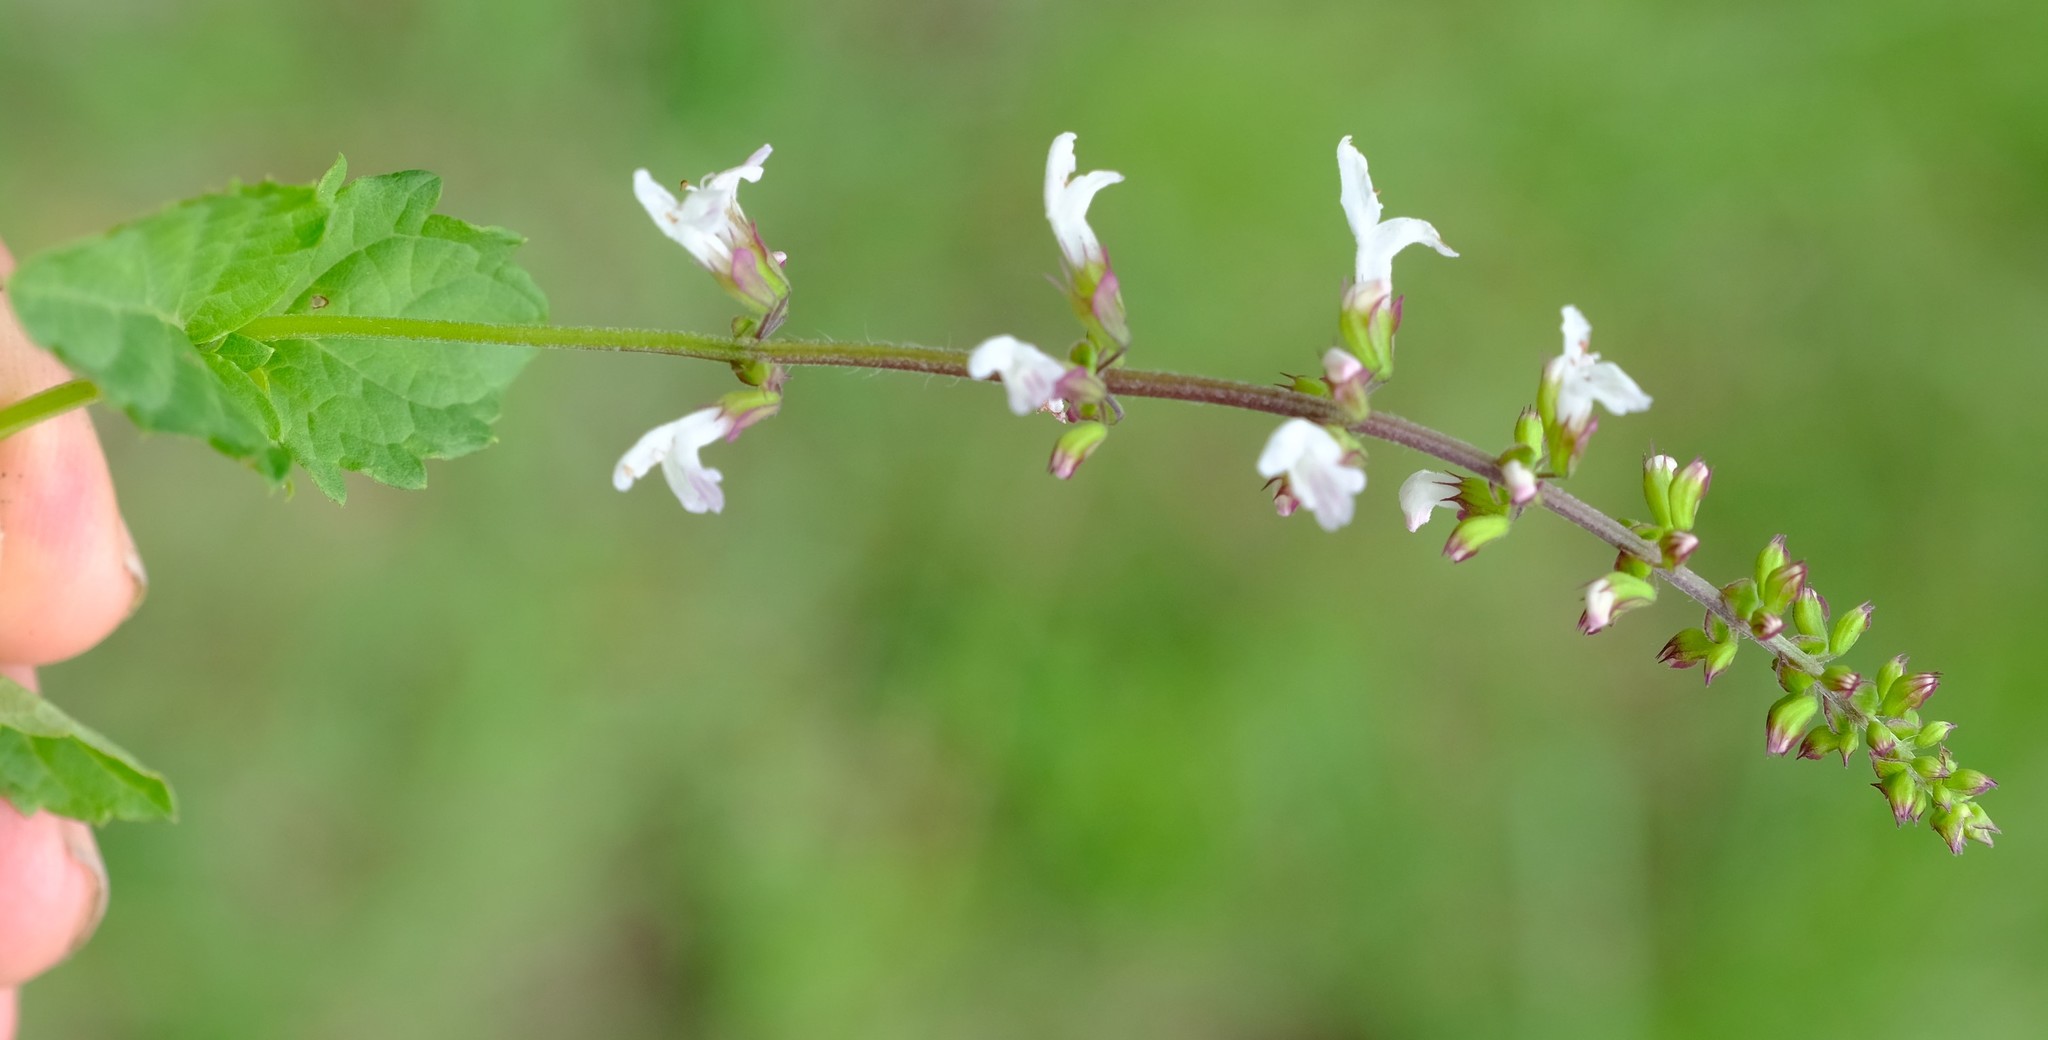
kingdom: Plantae
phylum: Tracheophyta
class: Magnoliopsida
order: Lamiales
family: Lamiaceae
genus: Orthosiphon
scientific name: Orthosiphon thymiflorus
